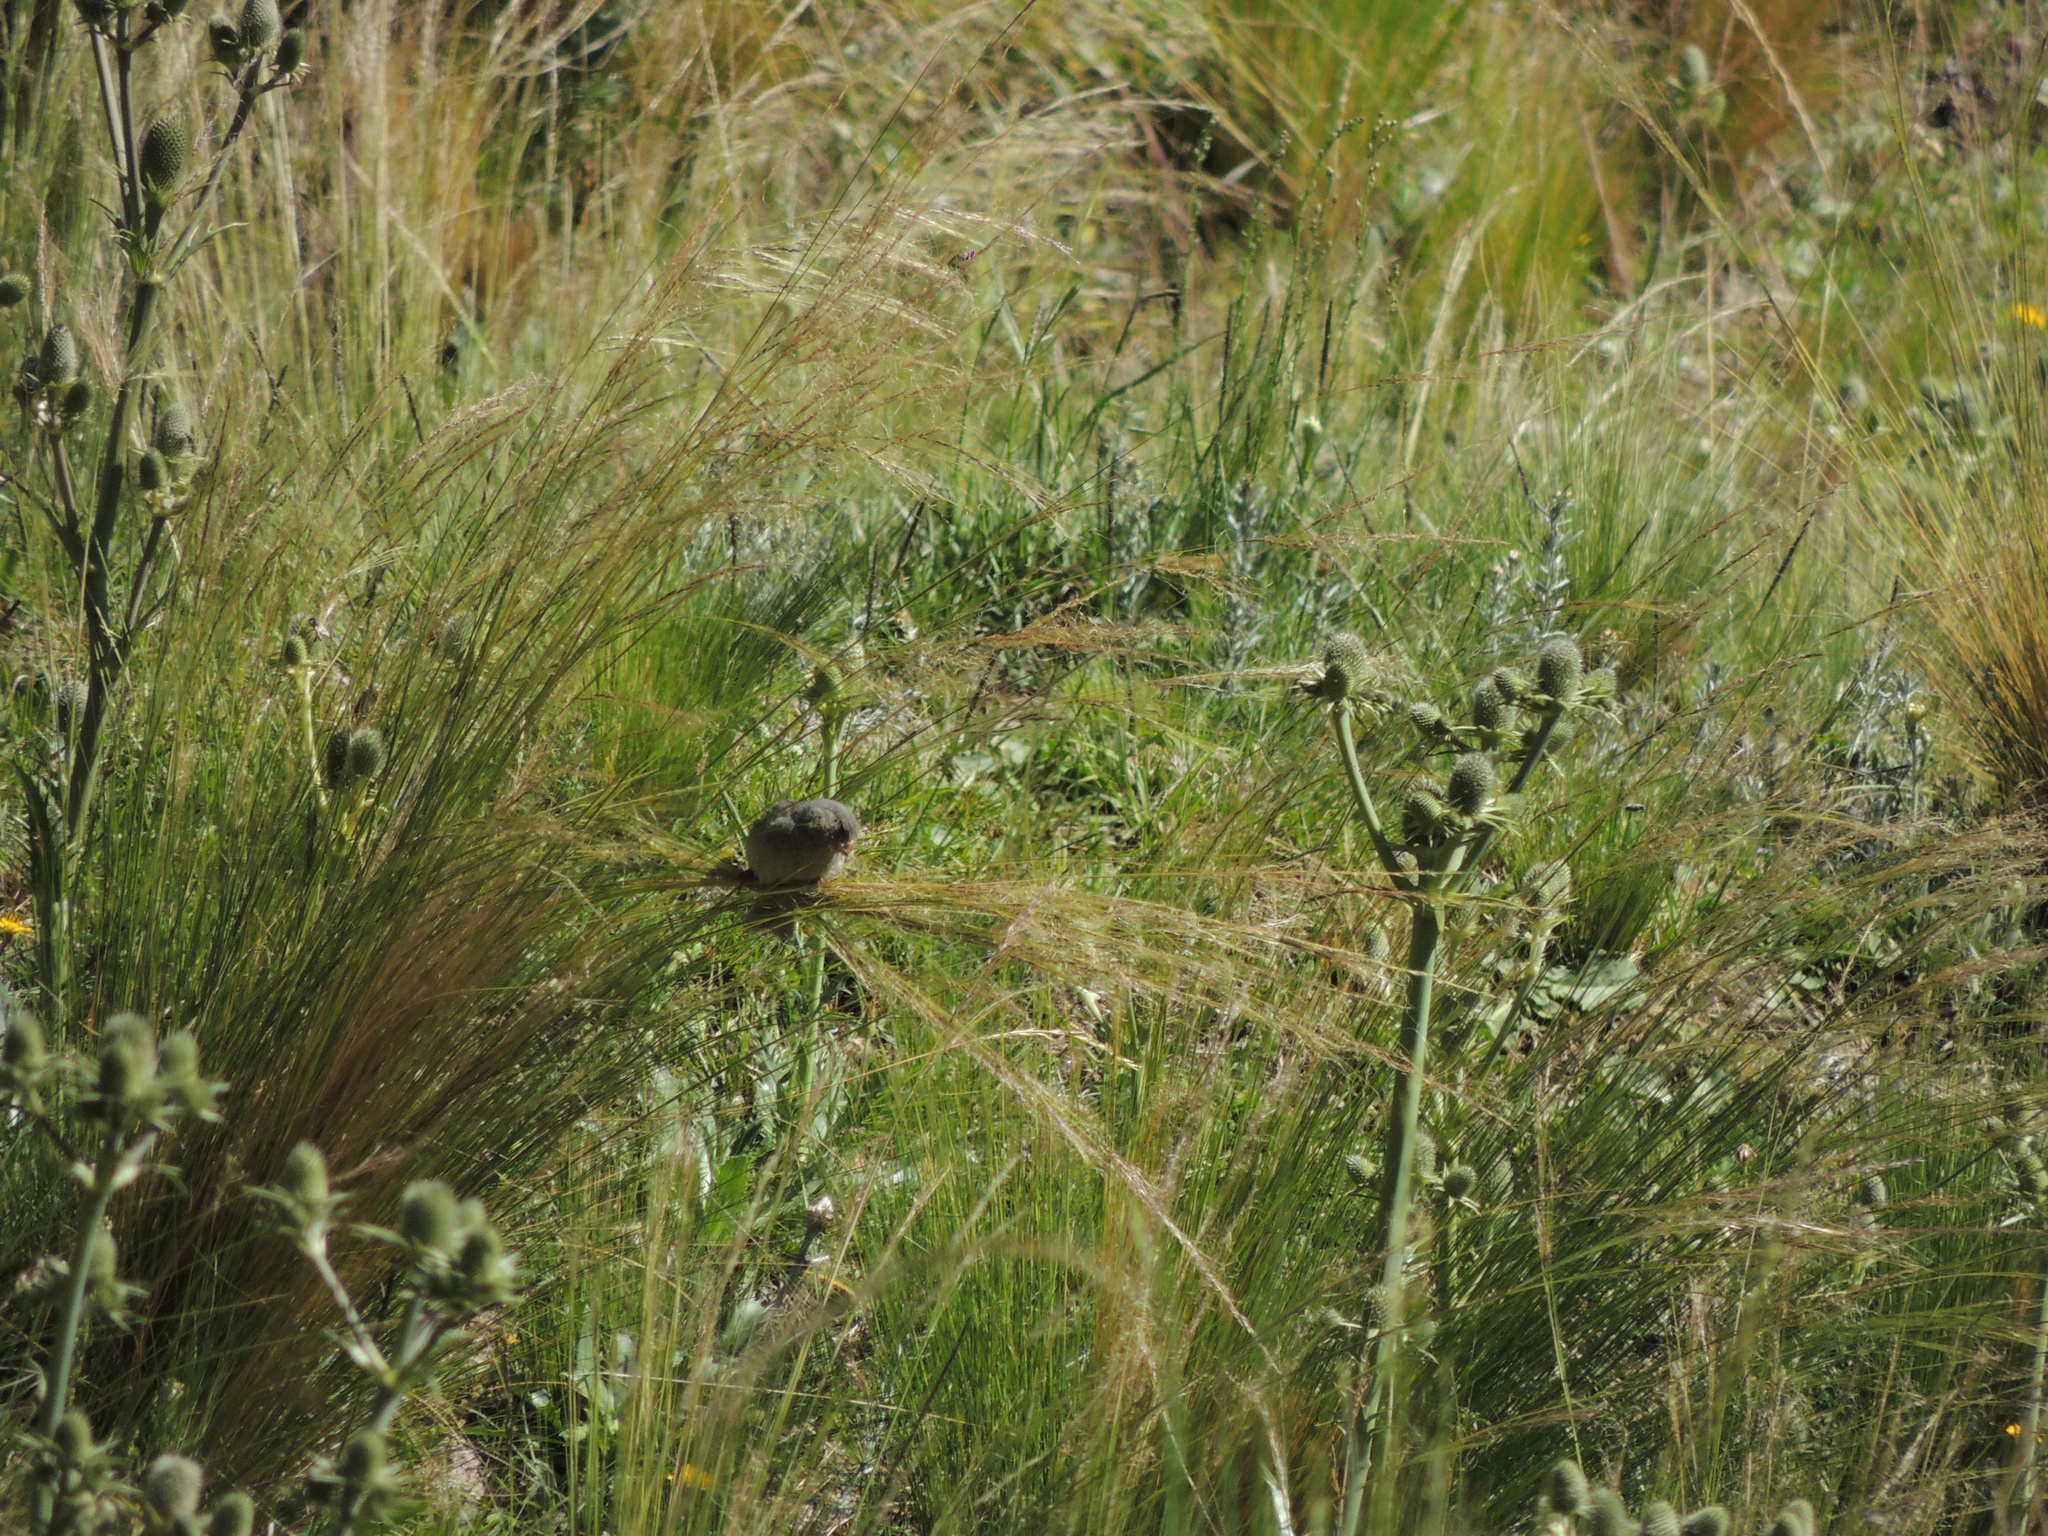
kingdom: Animalia
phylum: Chordata
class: Aves
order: Passeriformes
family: Thraupidae
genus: Catamenia
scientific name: Catamenia inornata
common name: Plain-colored seedeater
